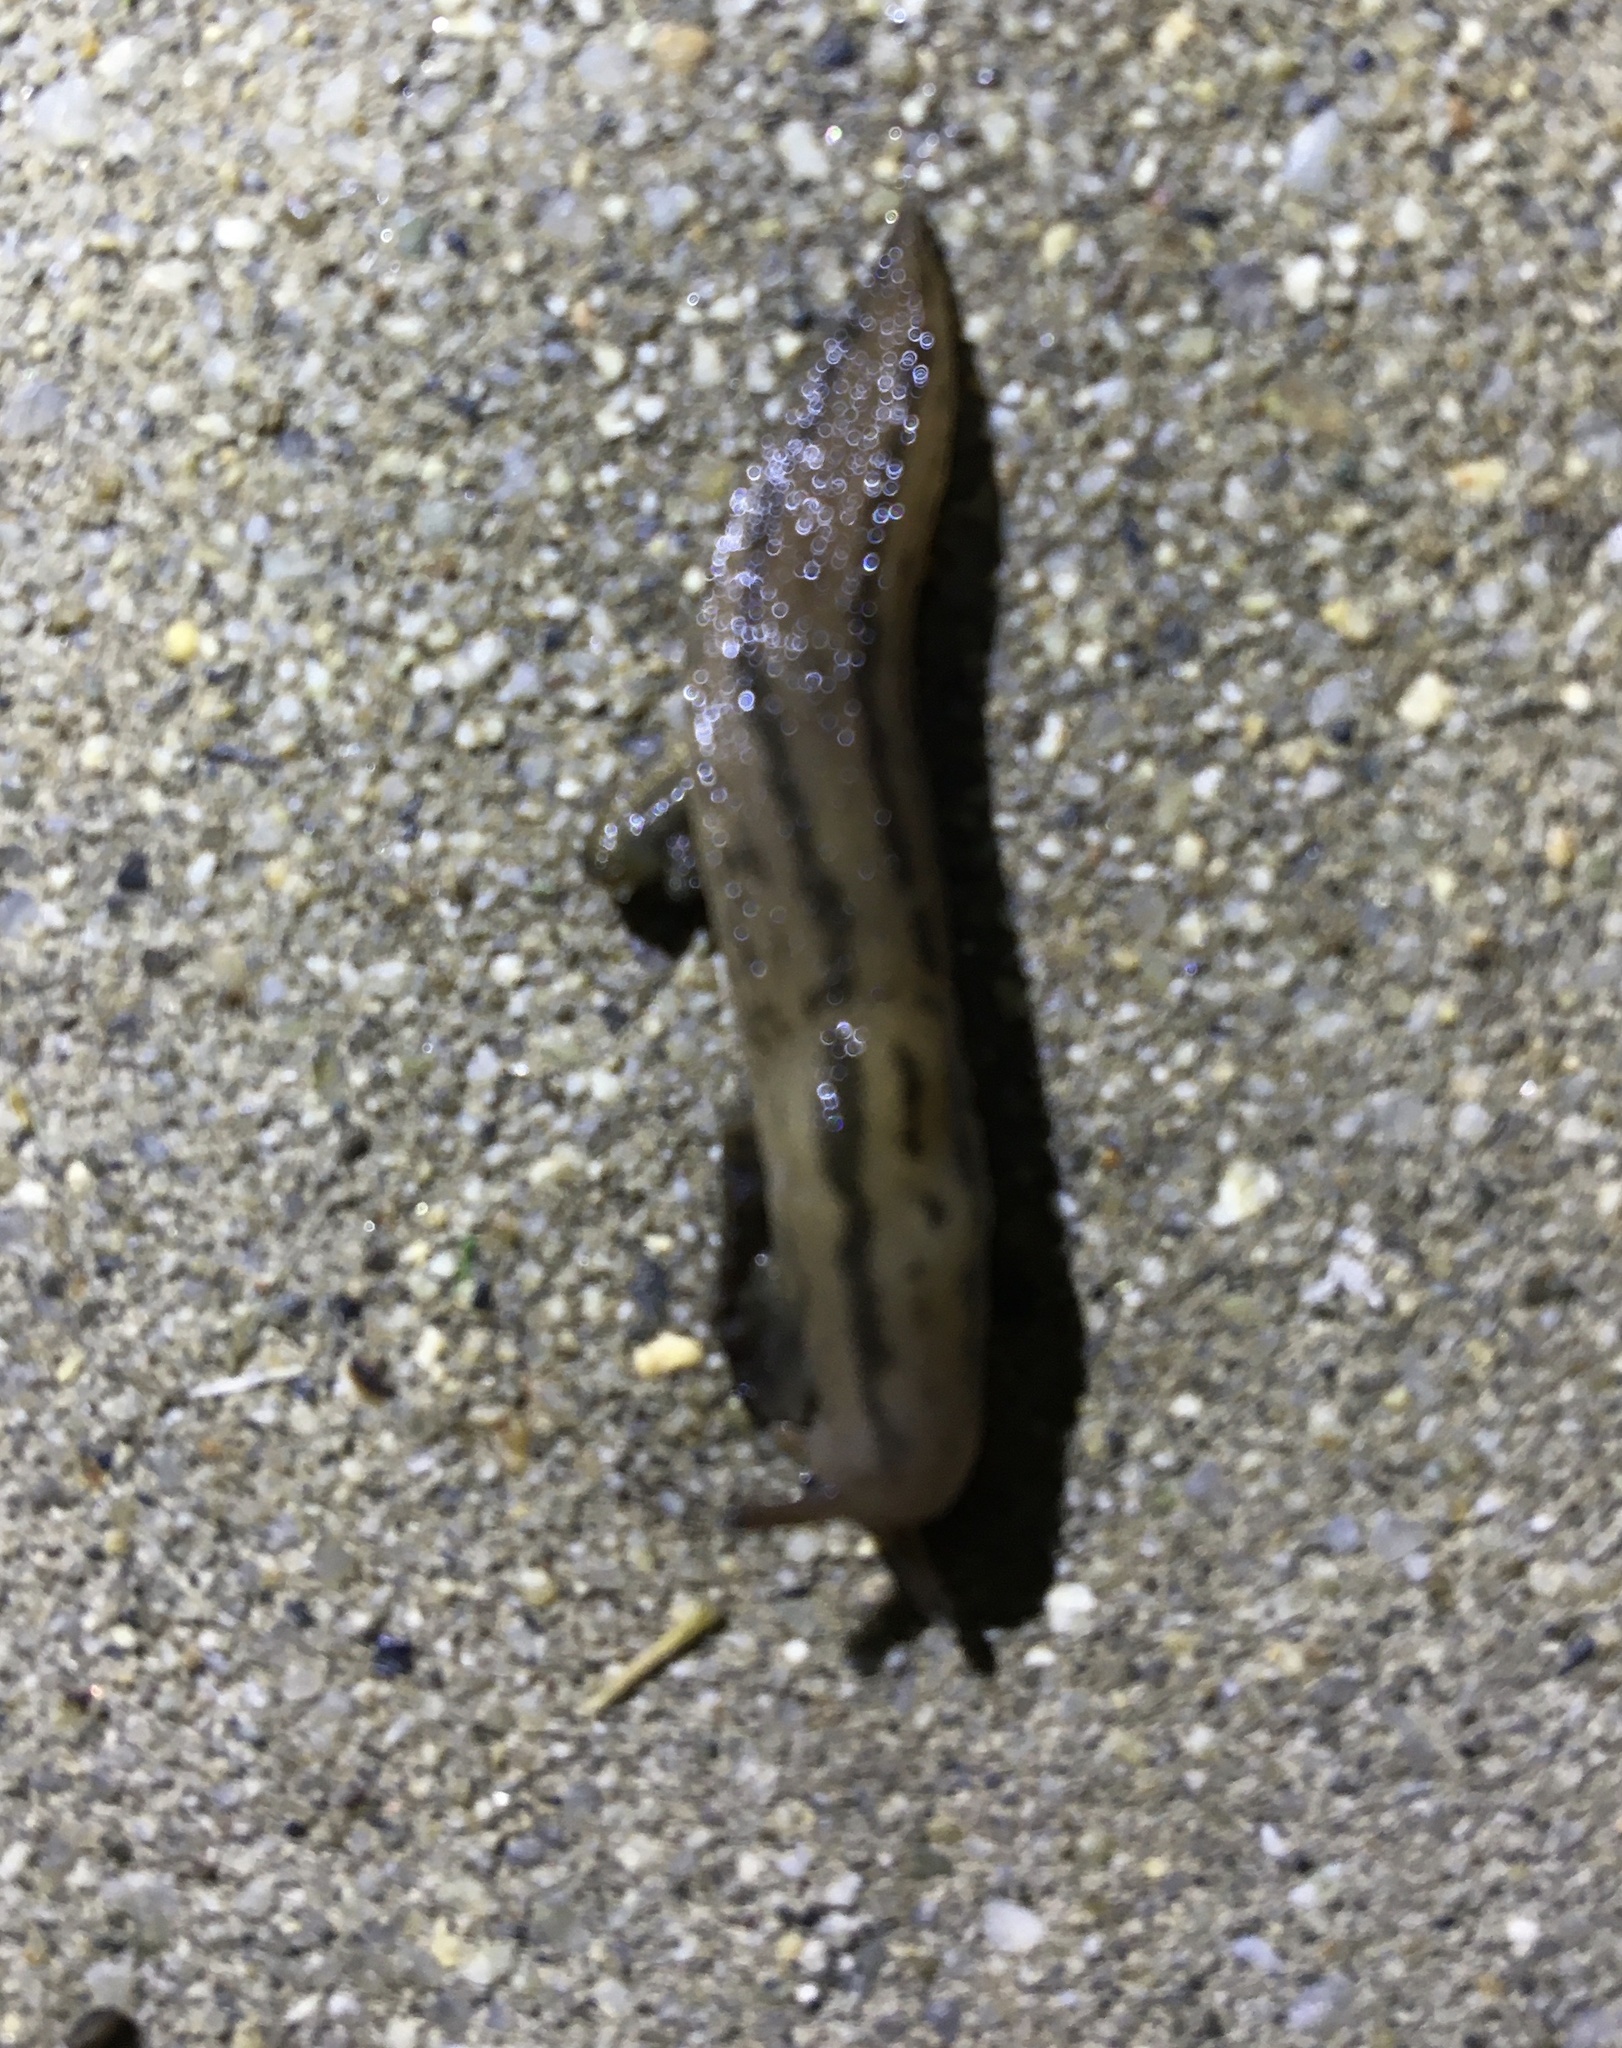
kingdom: Animalia
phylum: Mollusca
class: Gastropoda
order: Stylommatophora
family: Limacidae
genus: Ambigolimax
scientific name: Ambigolimax
